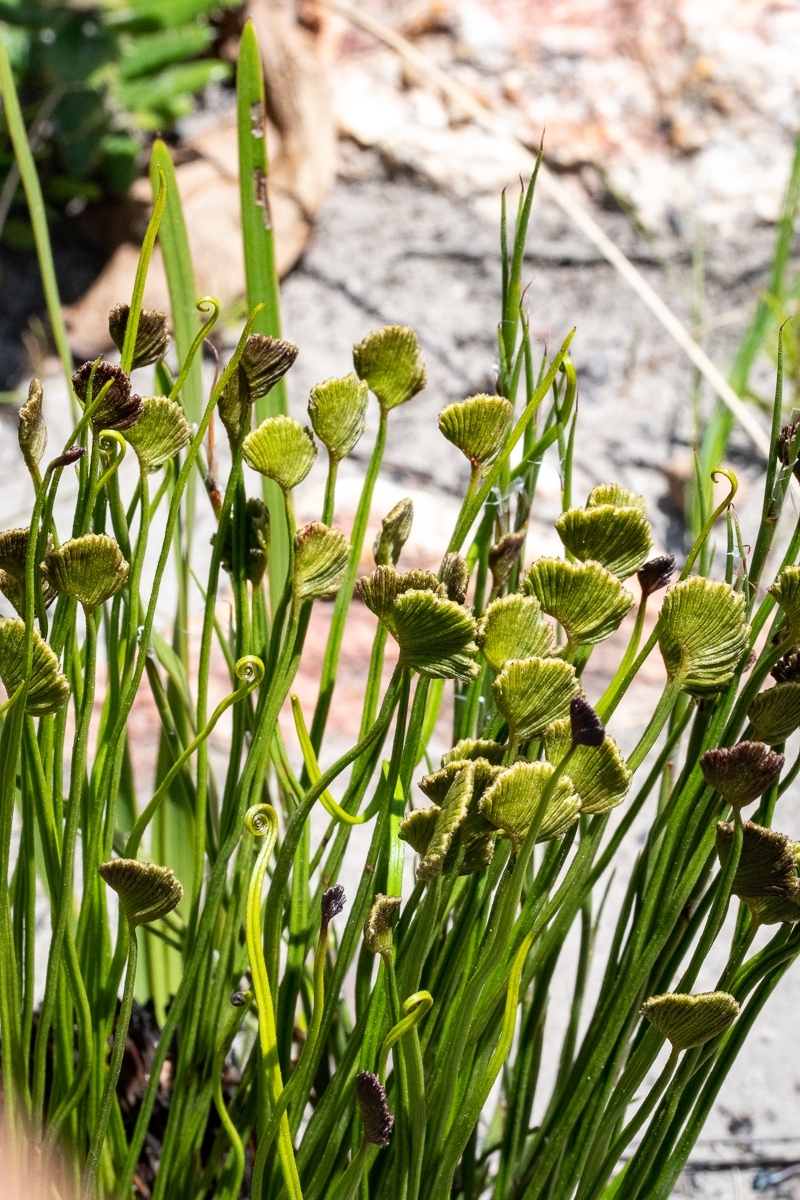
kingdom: Plantae
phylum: Tracheophyta
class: Polypodiopsida
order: Schizaeales
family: Schizaeaceae
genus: Schizaea
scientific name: Schizaea pectinata
